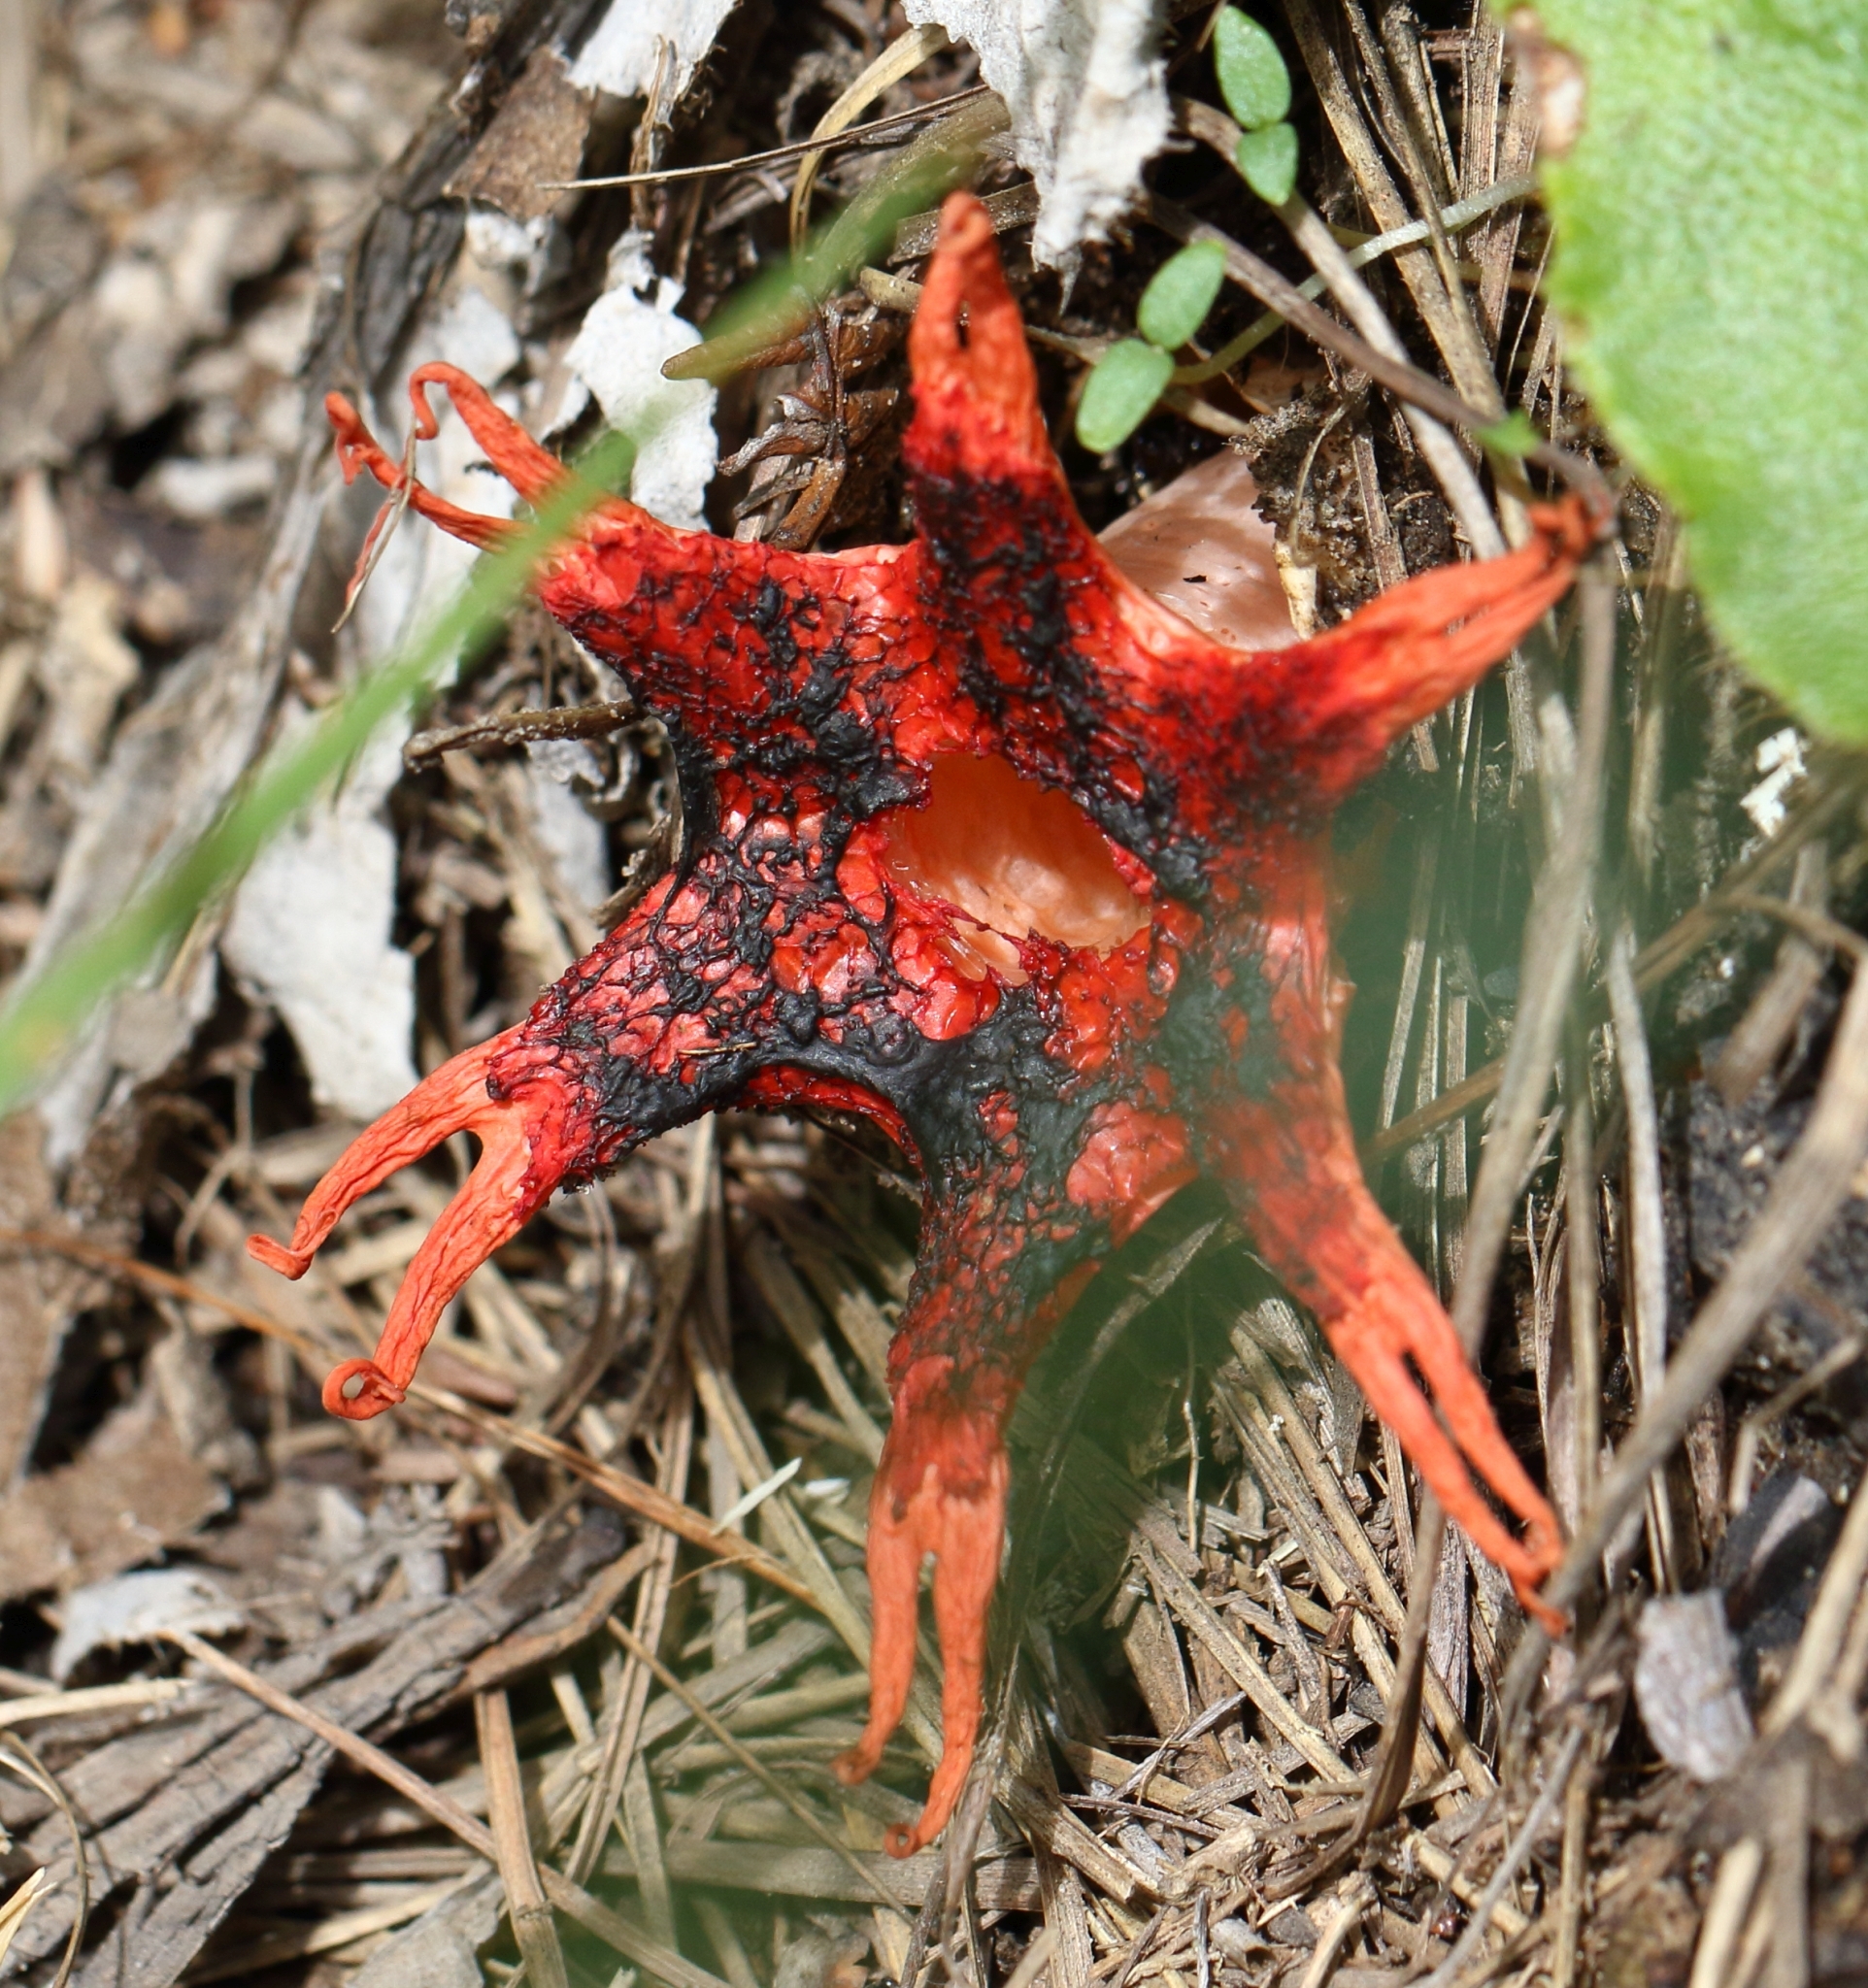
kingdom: Fungi
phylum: Basidiomycota
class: Agaricomycetes
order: Phallales
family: Phallaceae
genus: Aseroe
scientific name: Aseroe rubra
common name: Starfish fungus
